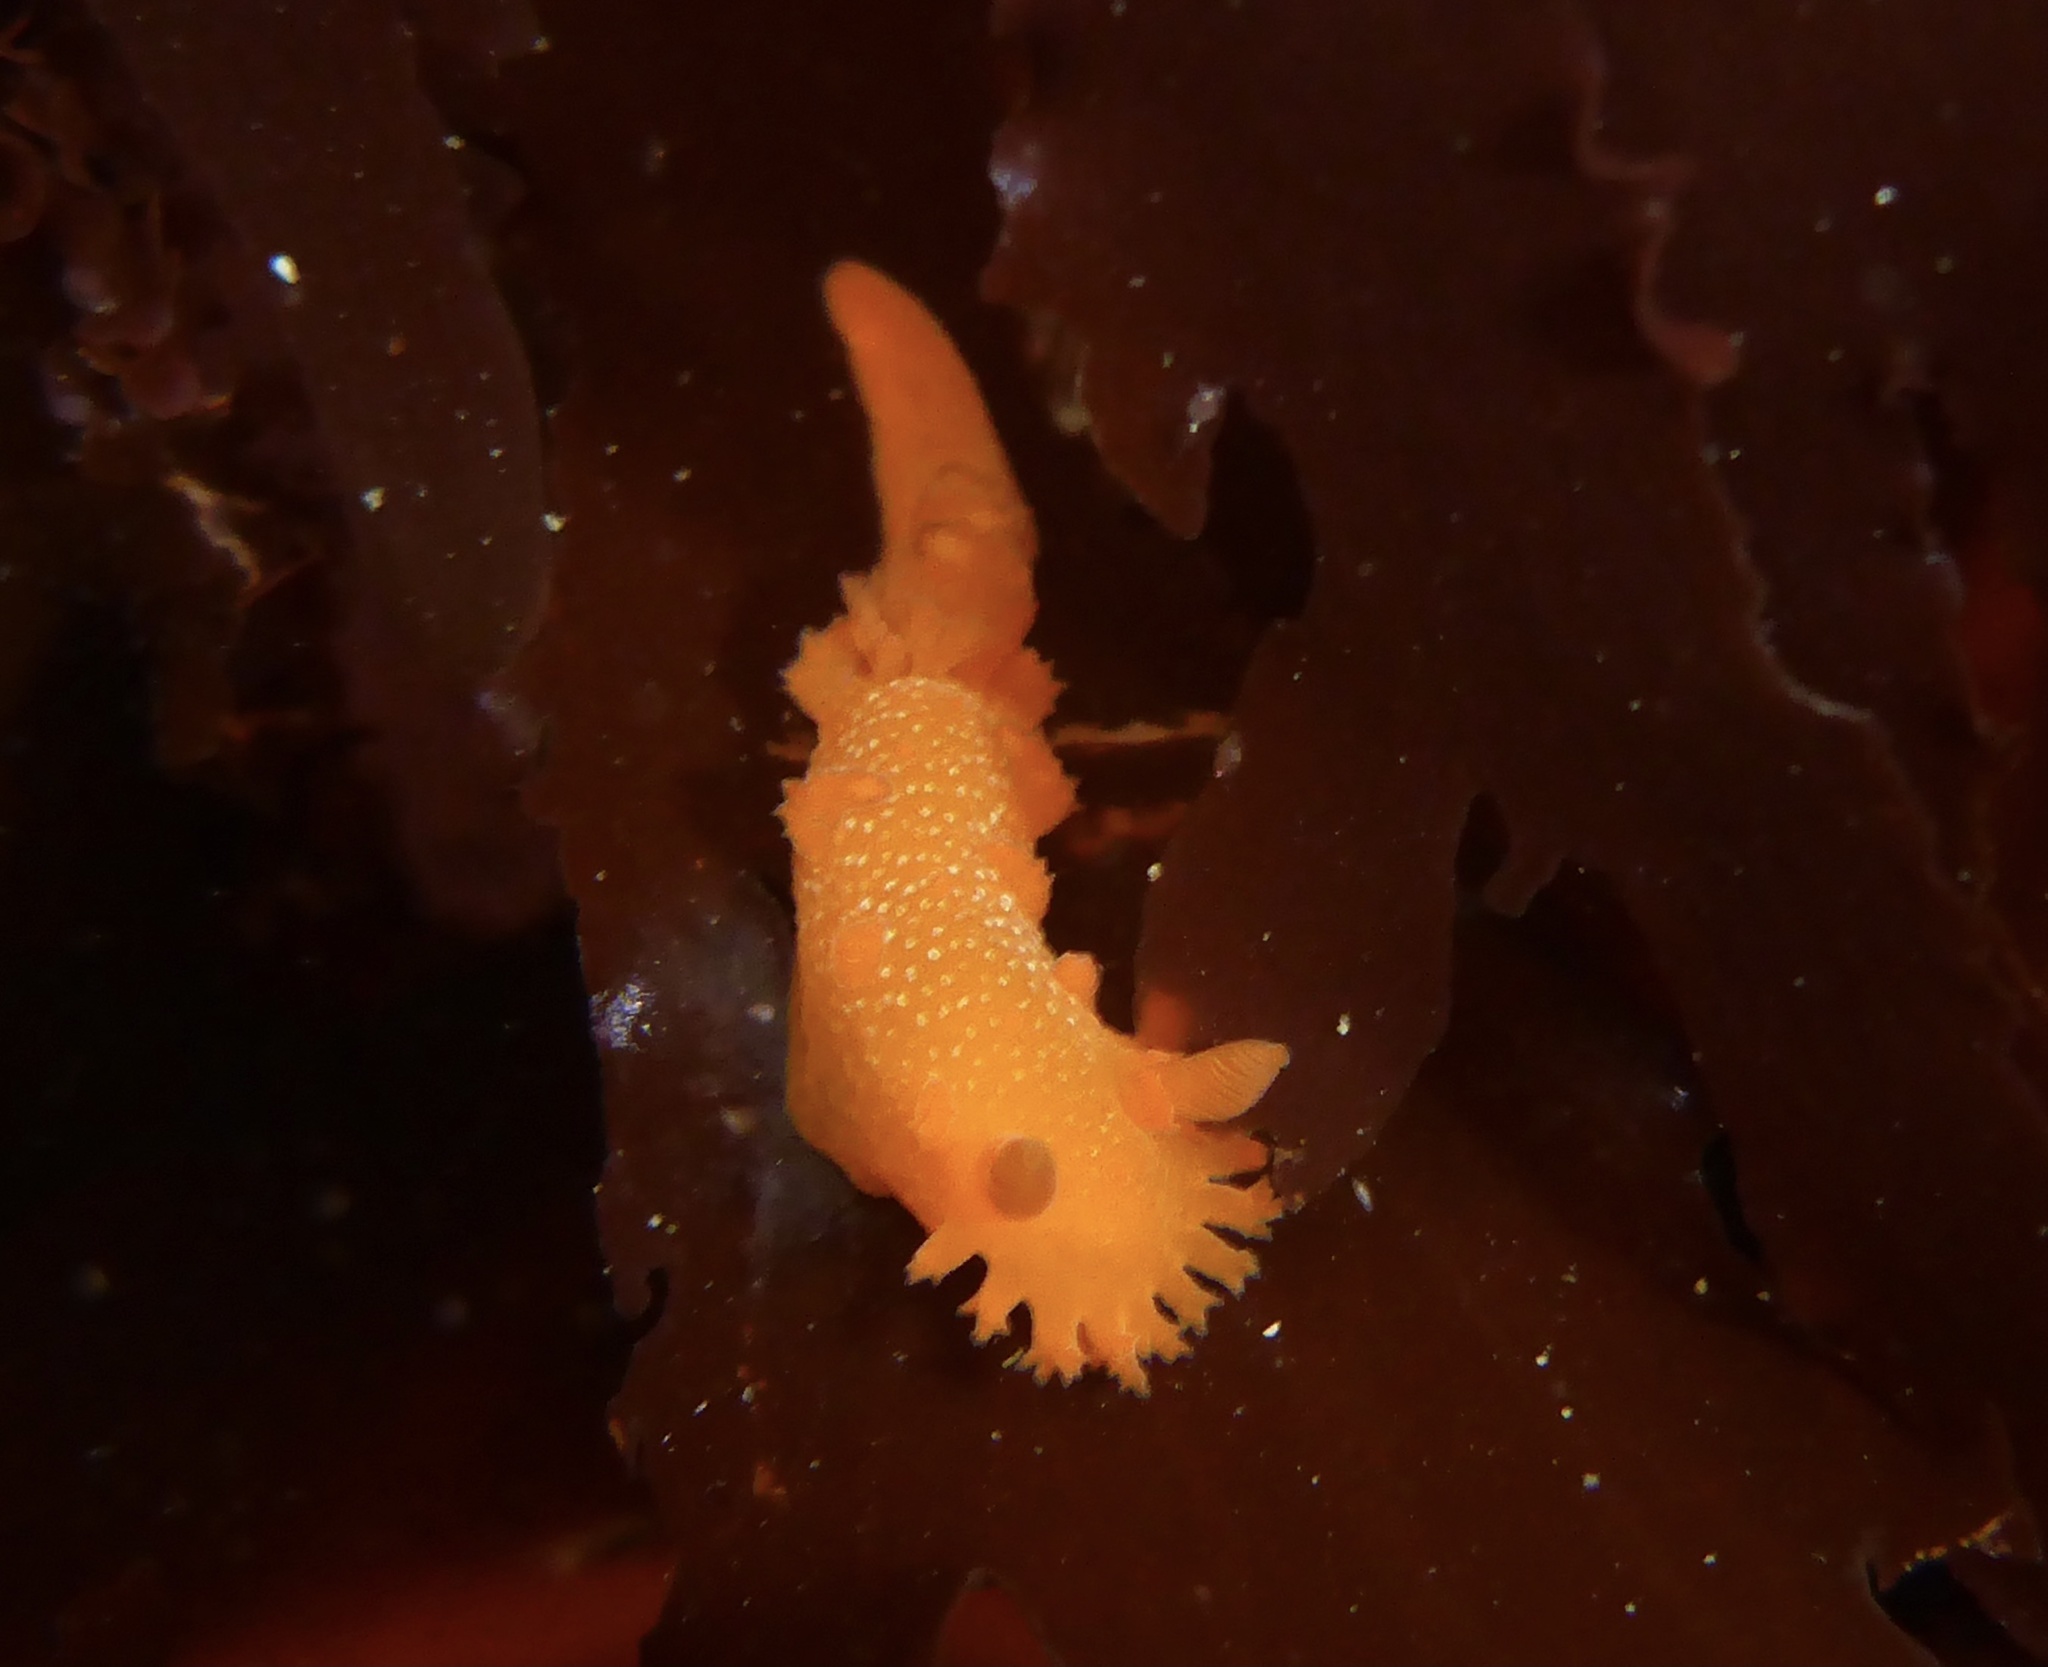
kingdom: Animalia
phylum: Mollusca
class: Gastropoda
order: Nudibranchia
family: Polyceridae
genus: Triopha
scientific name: Triopha maculata
